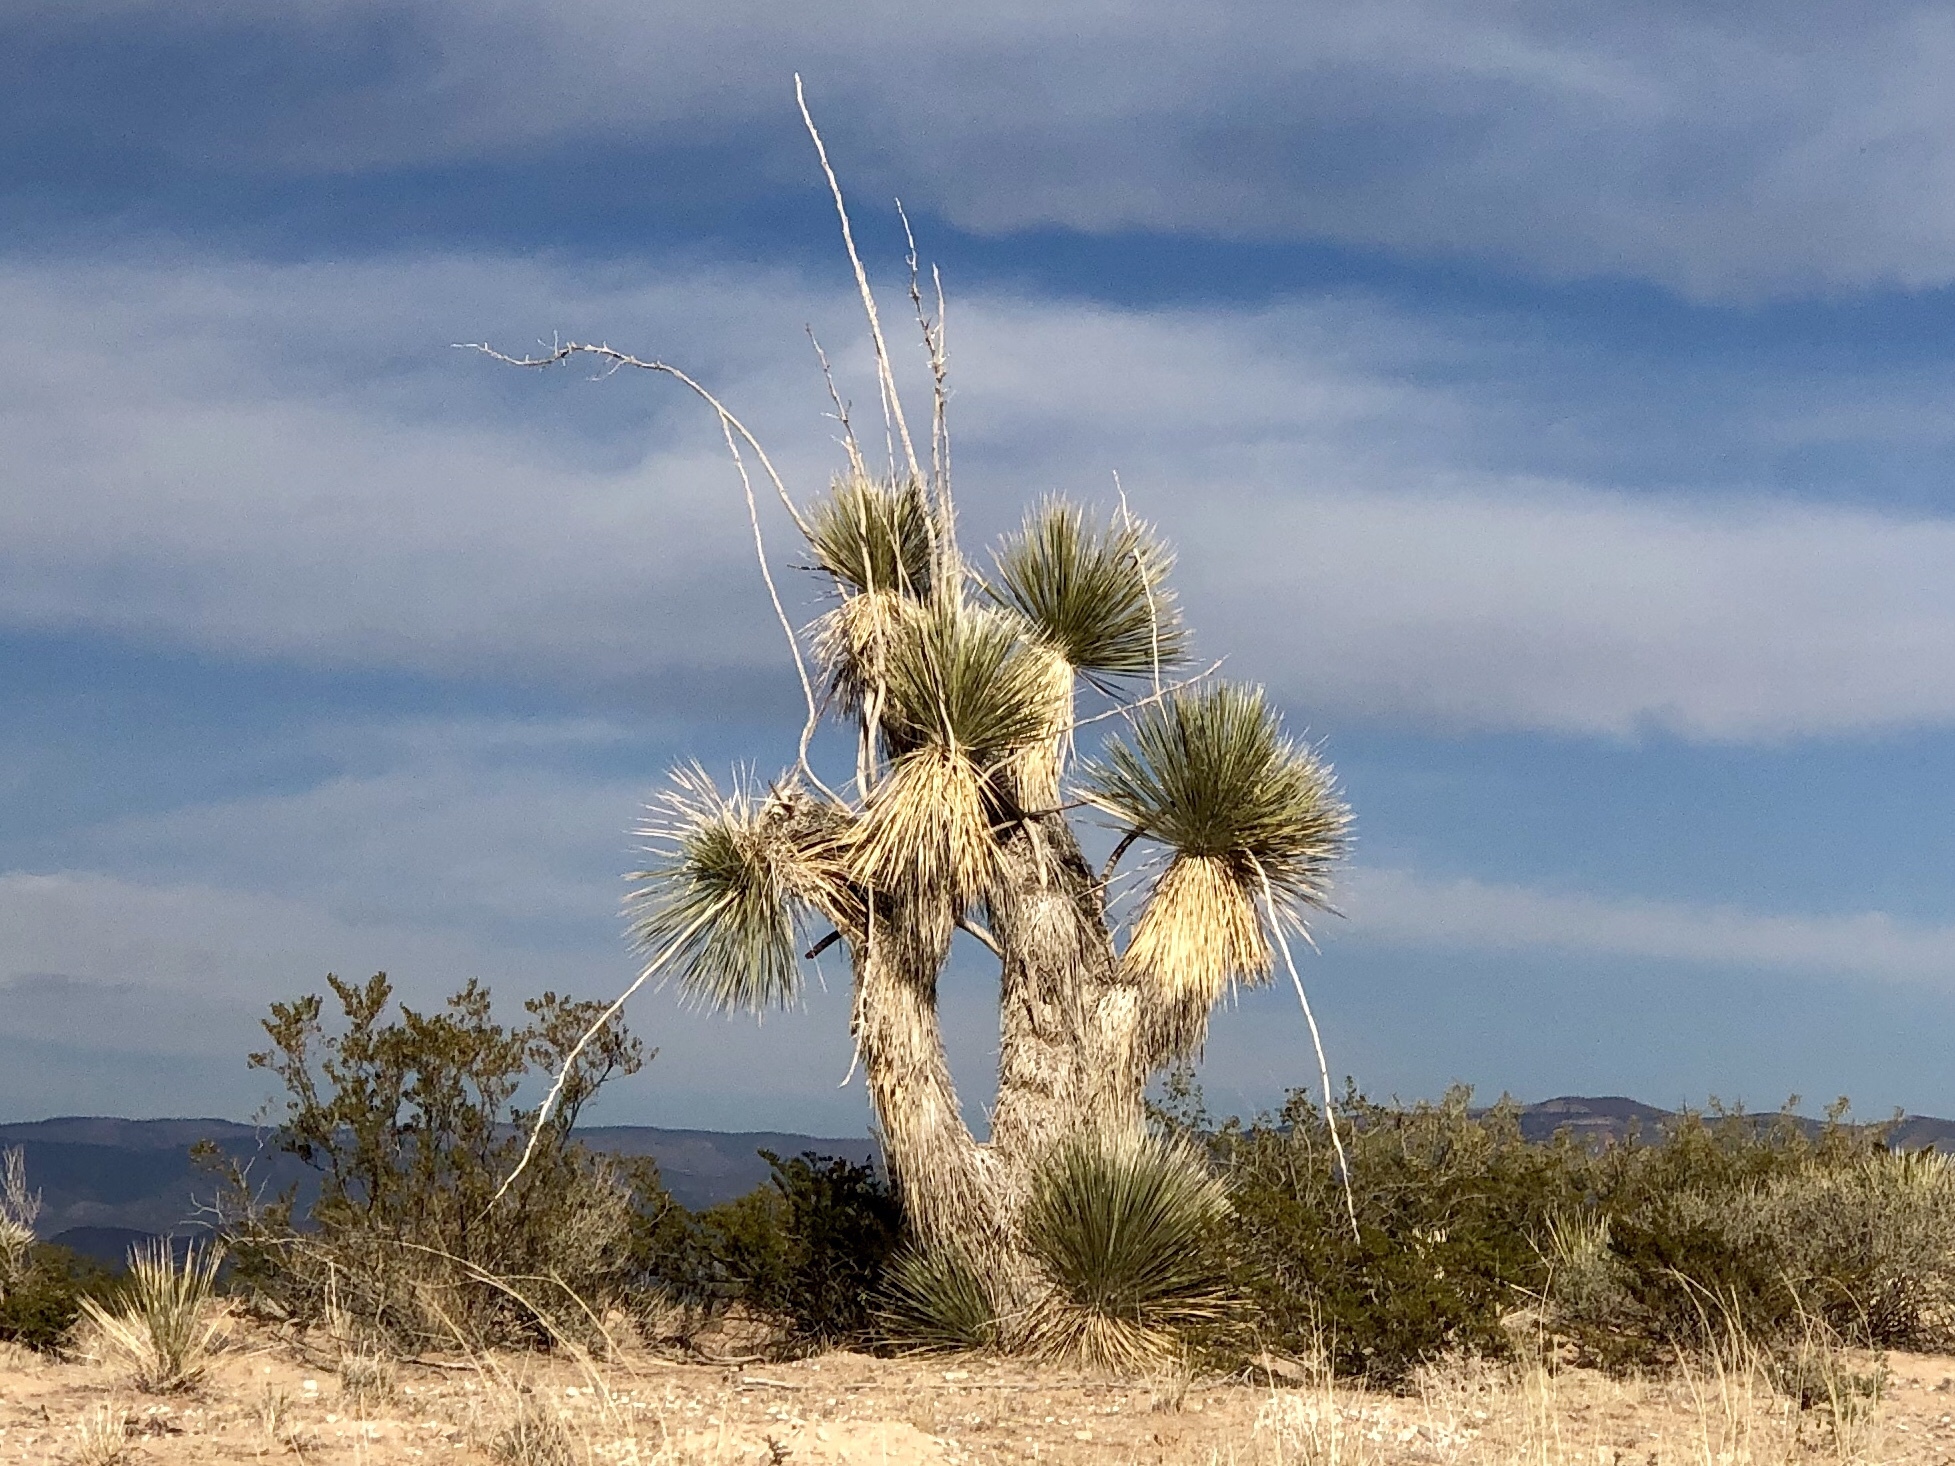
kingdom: Plantae
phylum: Tracheophyta
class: Liliopsida
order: Asparagales
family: Asparagaceae
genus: Yucca
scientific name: Yucca elata
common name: Palmella
